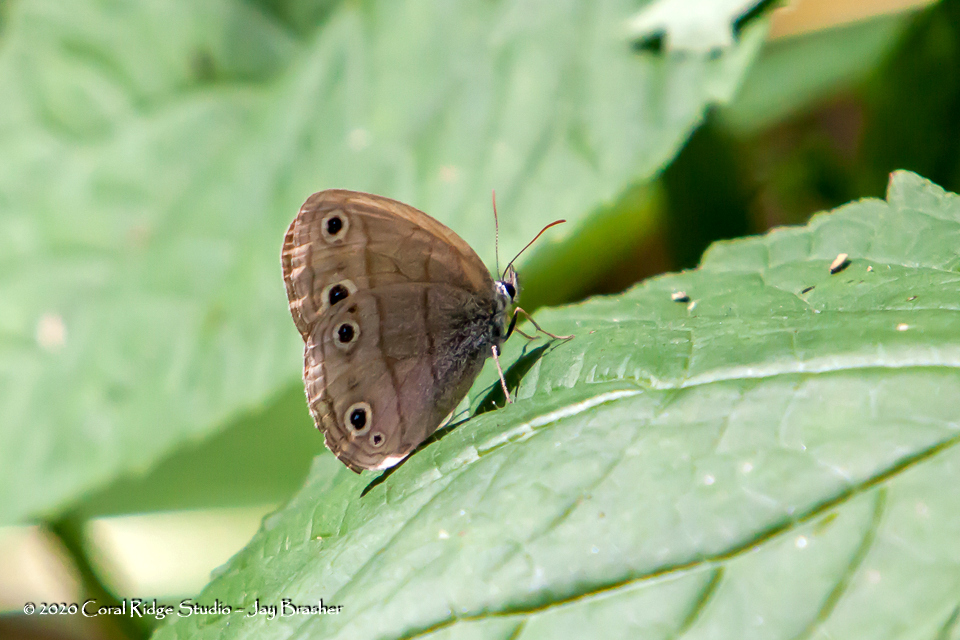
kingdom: Animalia
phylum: Arthropoda
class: Insecta
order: Lepidoptera
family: Nymphalidae
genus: Euptychia
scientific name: Euptychia cymela
